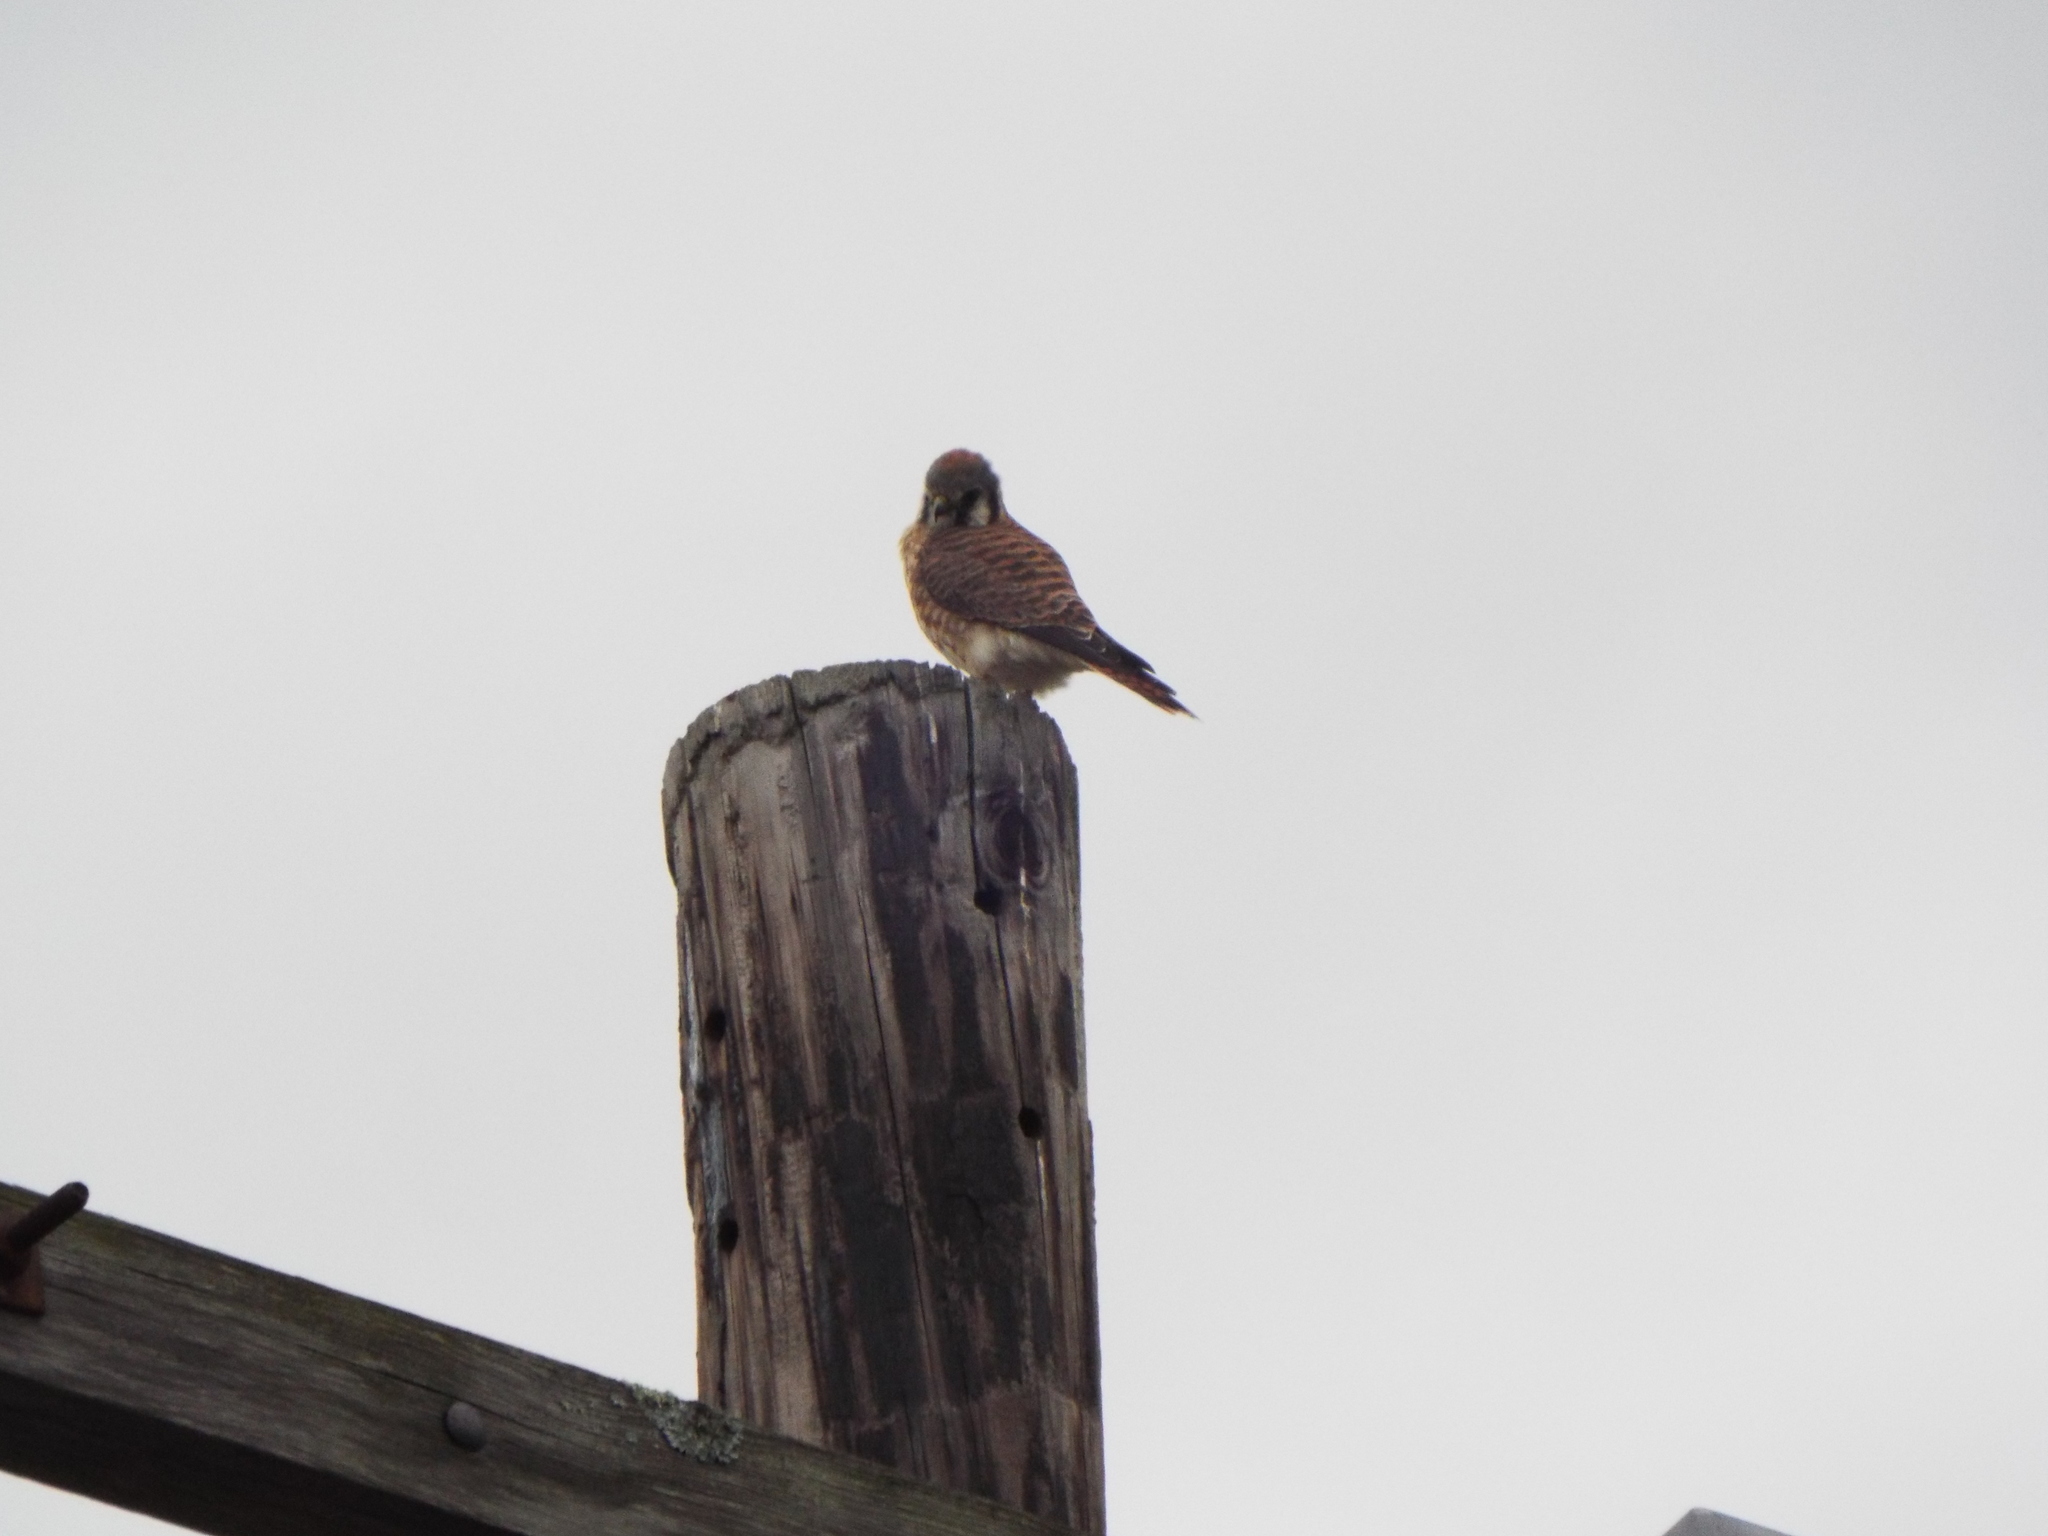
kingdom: Animalia
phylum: Chordata
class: Aves
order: Falconiformes
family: Falconidae
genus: Falco
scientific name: Falco sparverius
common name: American kestrel
